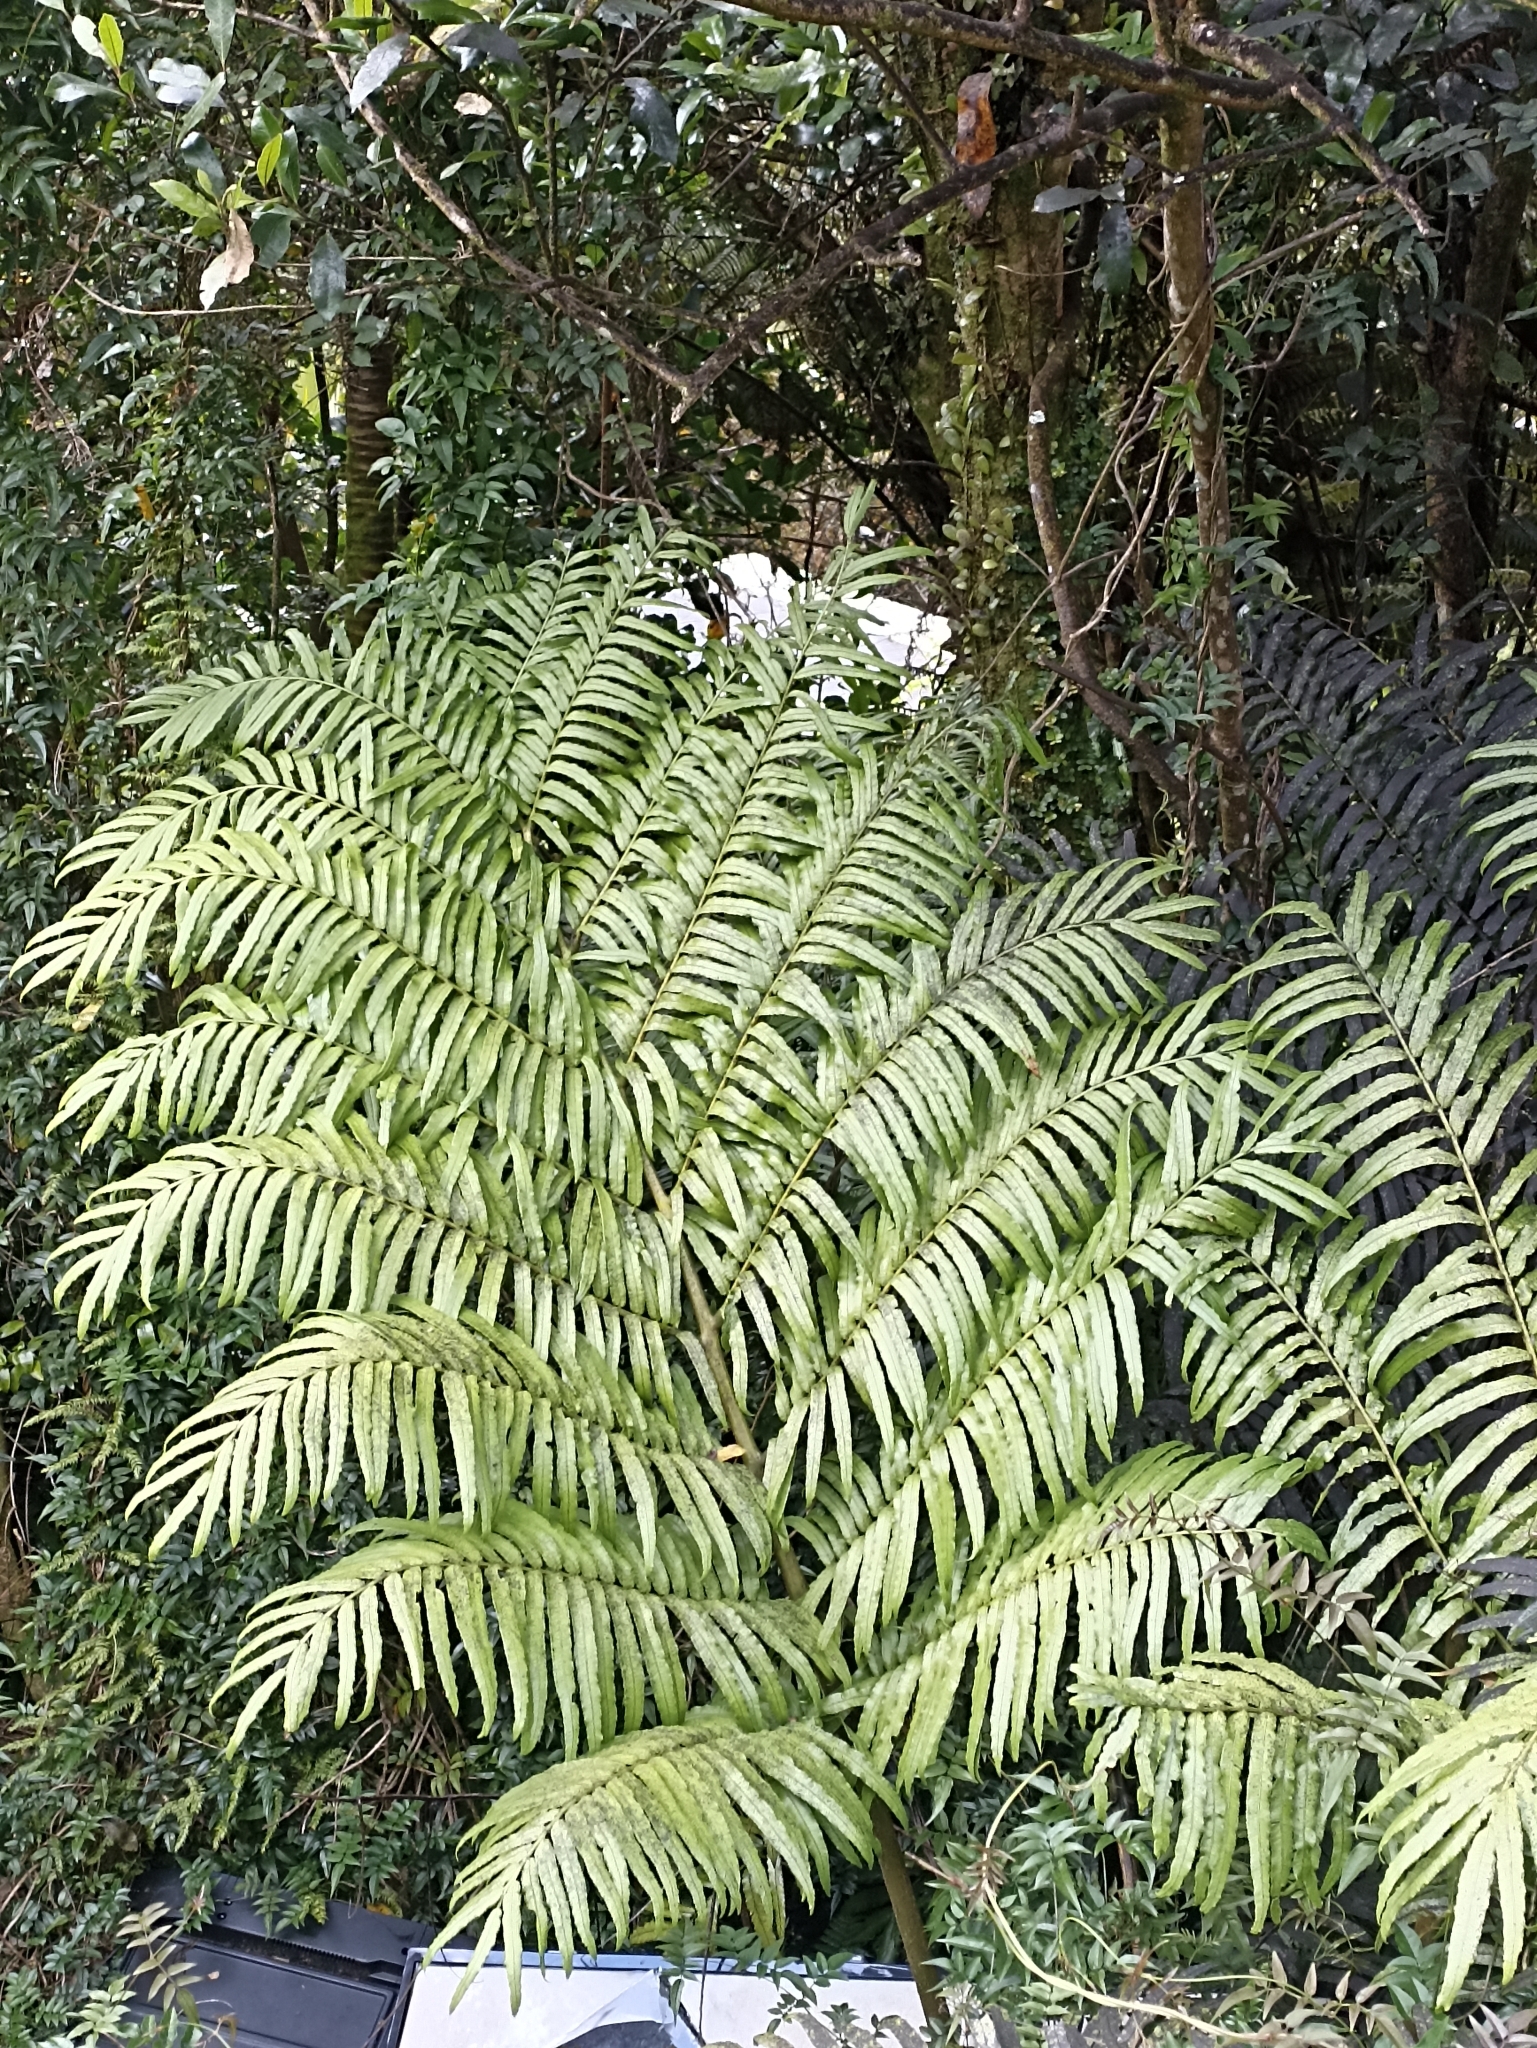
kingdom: Plantae
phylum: Tracheophyta
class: Polypodiopsida
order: Marattiales
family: Marattiaceae
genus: Ptisana
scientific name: Ptisana salicina
